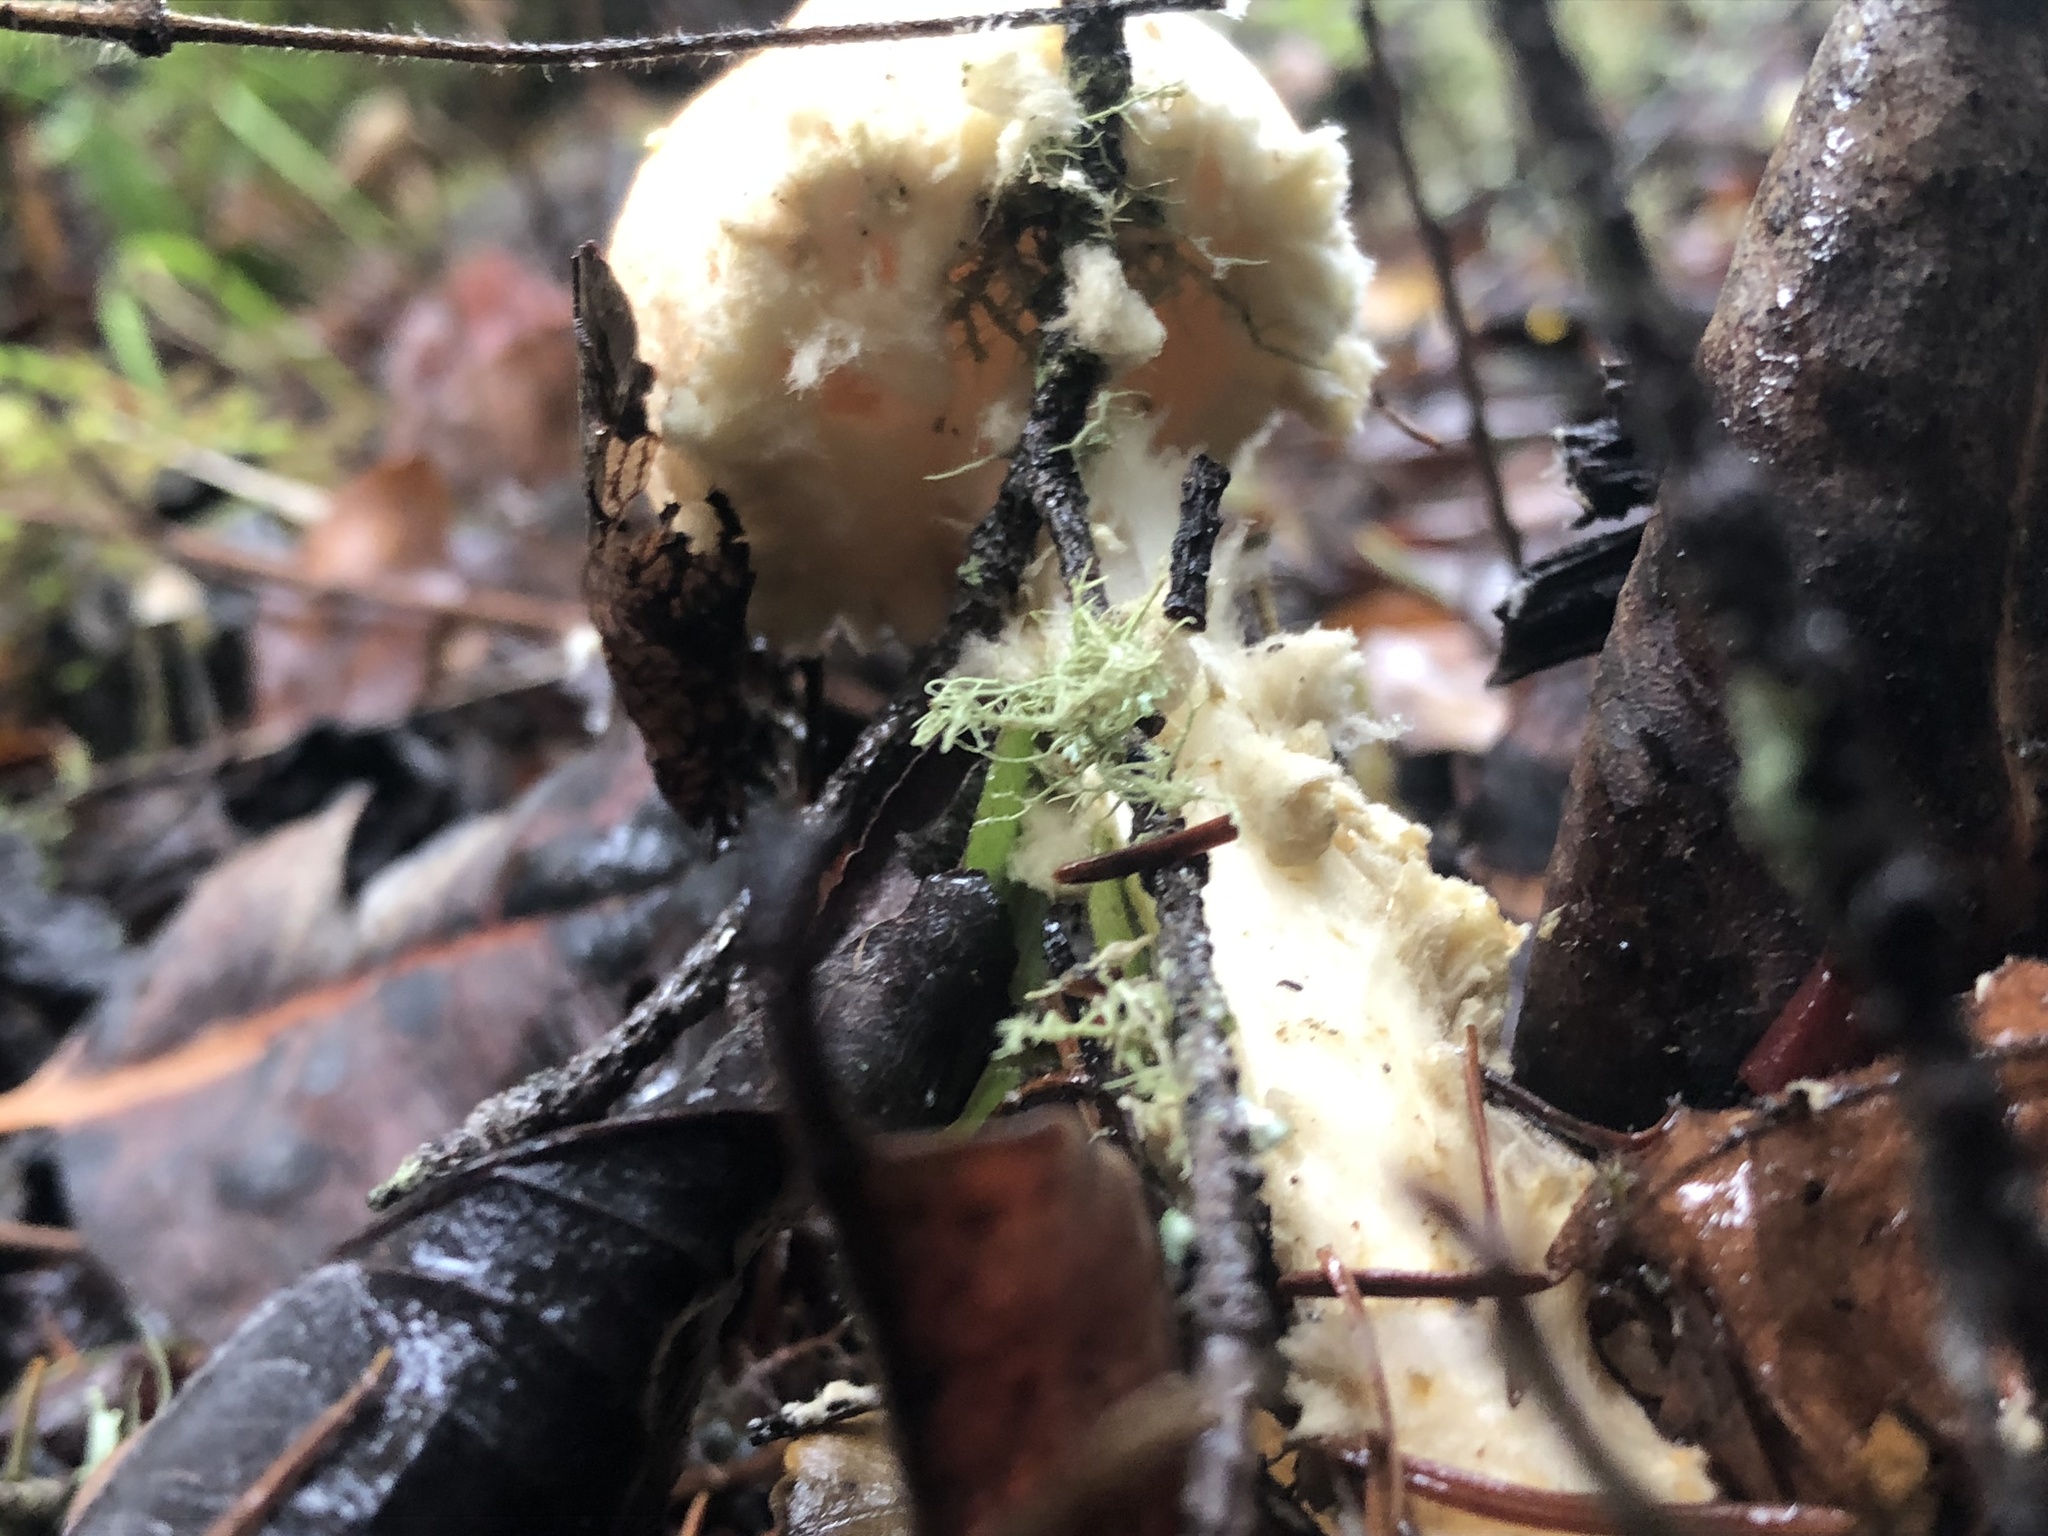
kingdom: Fungi
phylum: Basidiomycota
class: Agaricomycetes
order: Agaricales
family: Agaricaceae
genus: Lepiota
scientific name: Lepiota magnispora
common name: Yellowfoot dapperling
